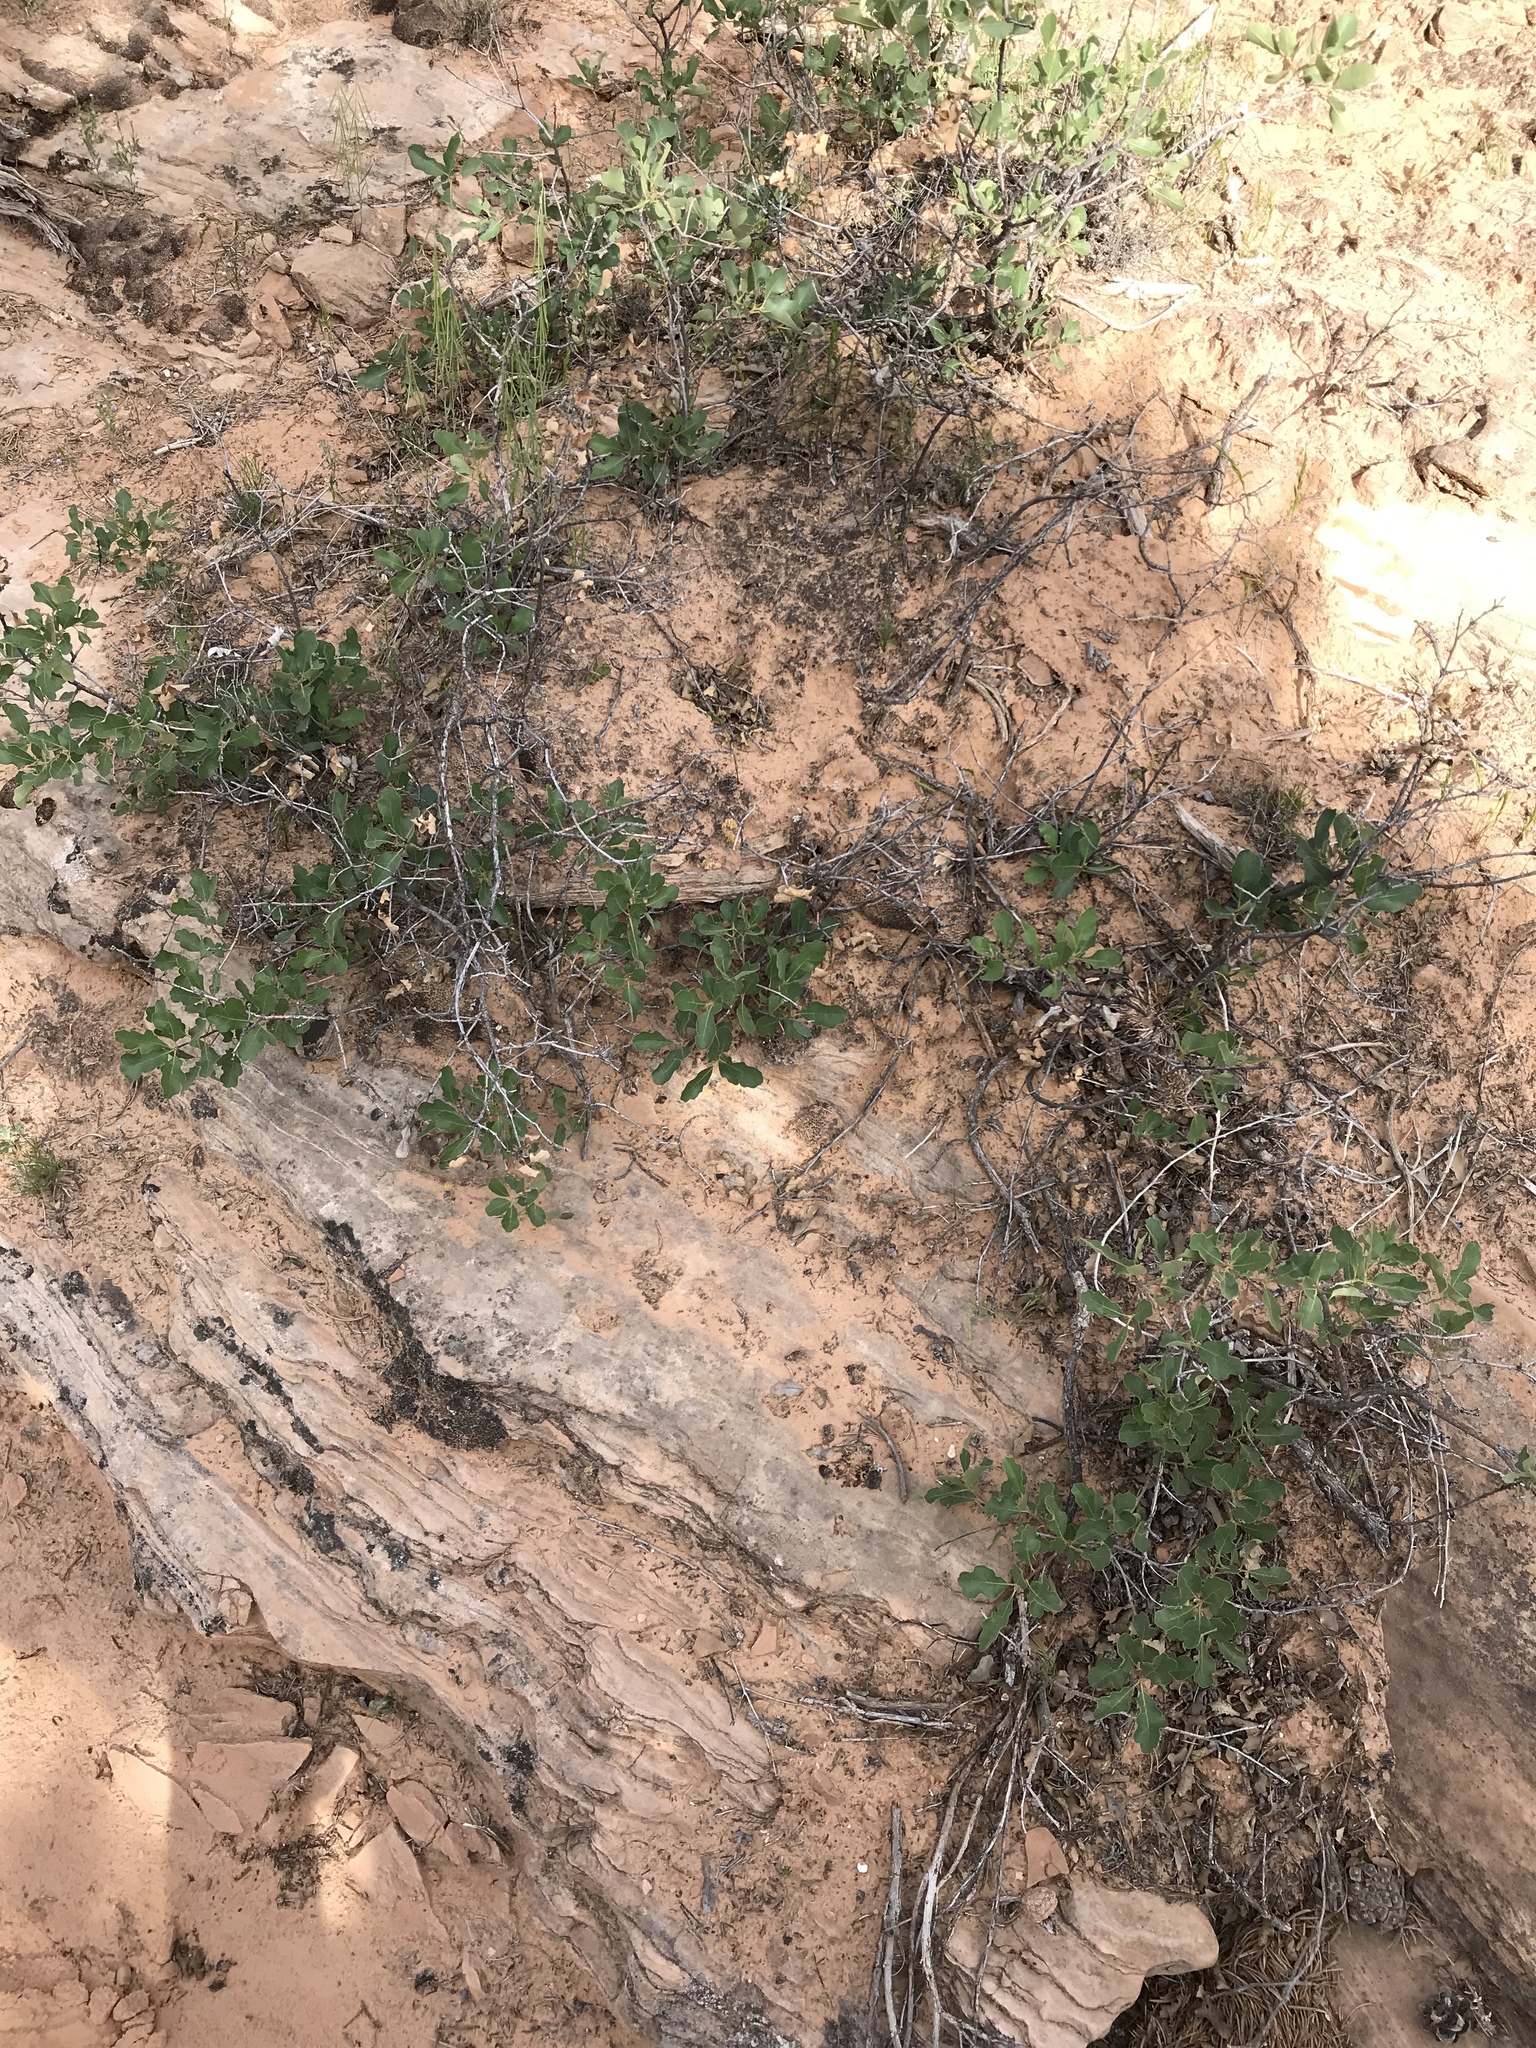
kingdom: Plantae
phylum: Tracheophyta
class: Magnoliopsida
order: Fagales
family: Fagaceae
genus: Quercus
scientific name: Quercus welshii
